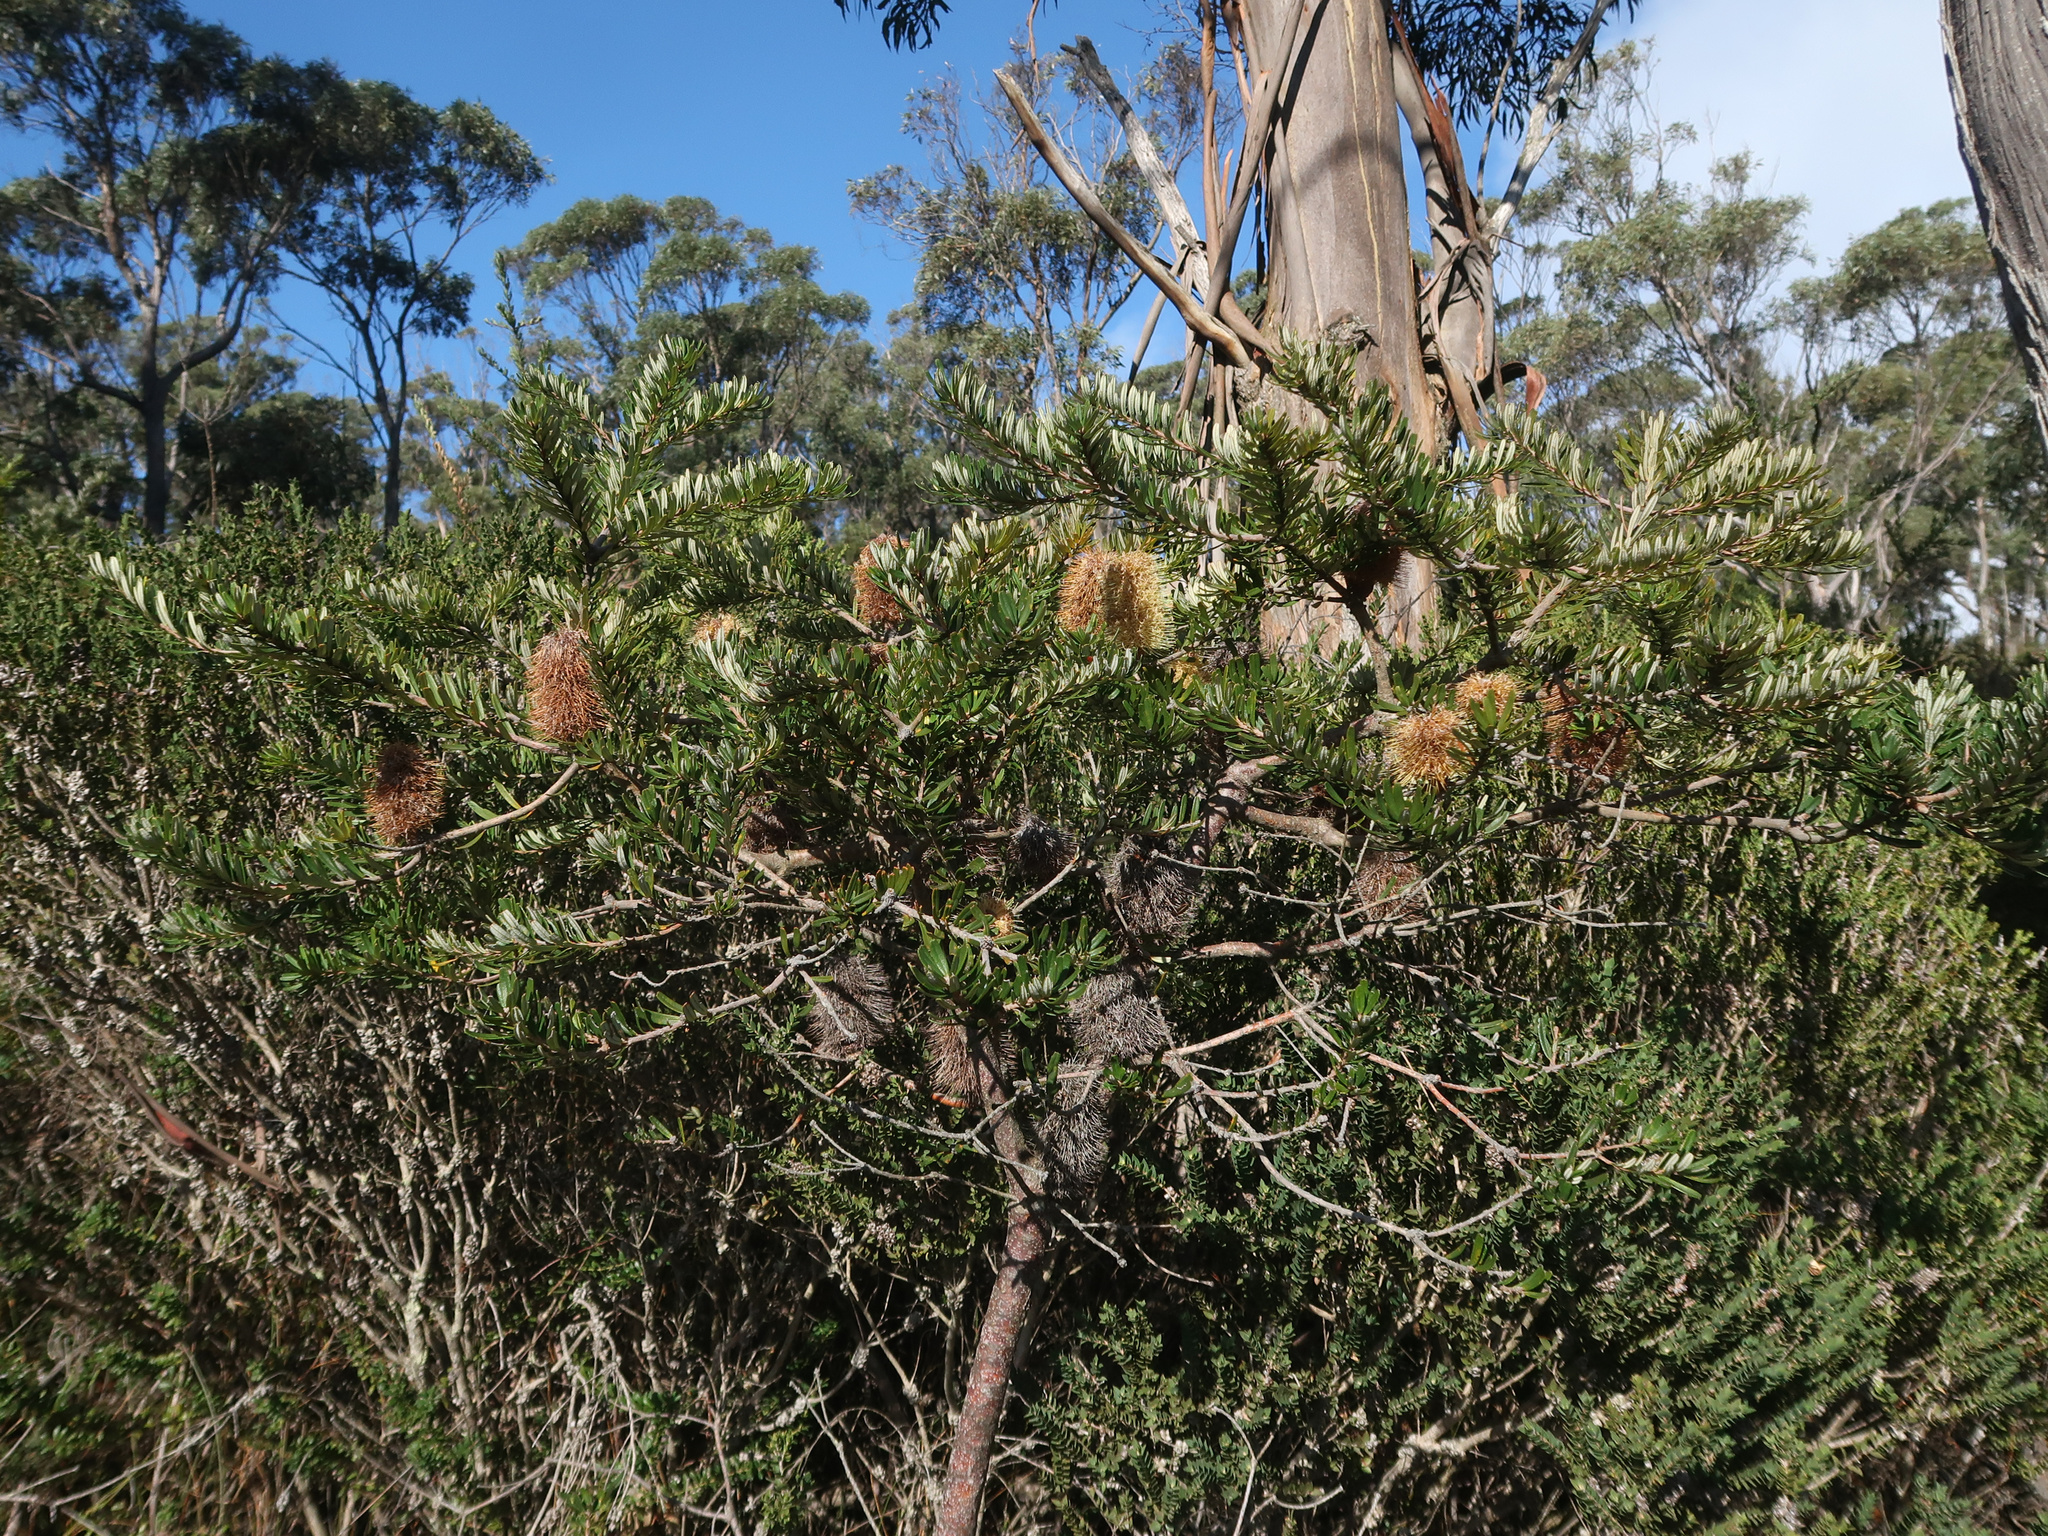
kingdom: Plantae
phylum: Tracheophyta
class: Magnoliopsida
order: Proteales
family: Proteaceae
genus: Banksia
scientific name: Banksia marginata
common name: Silver banksia
